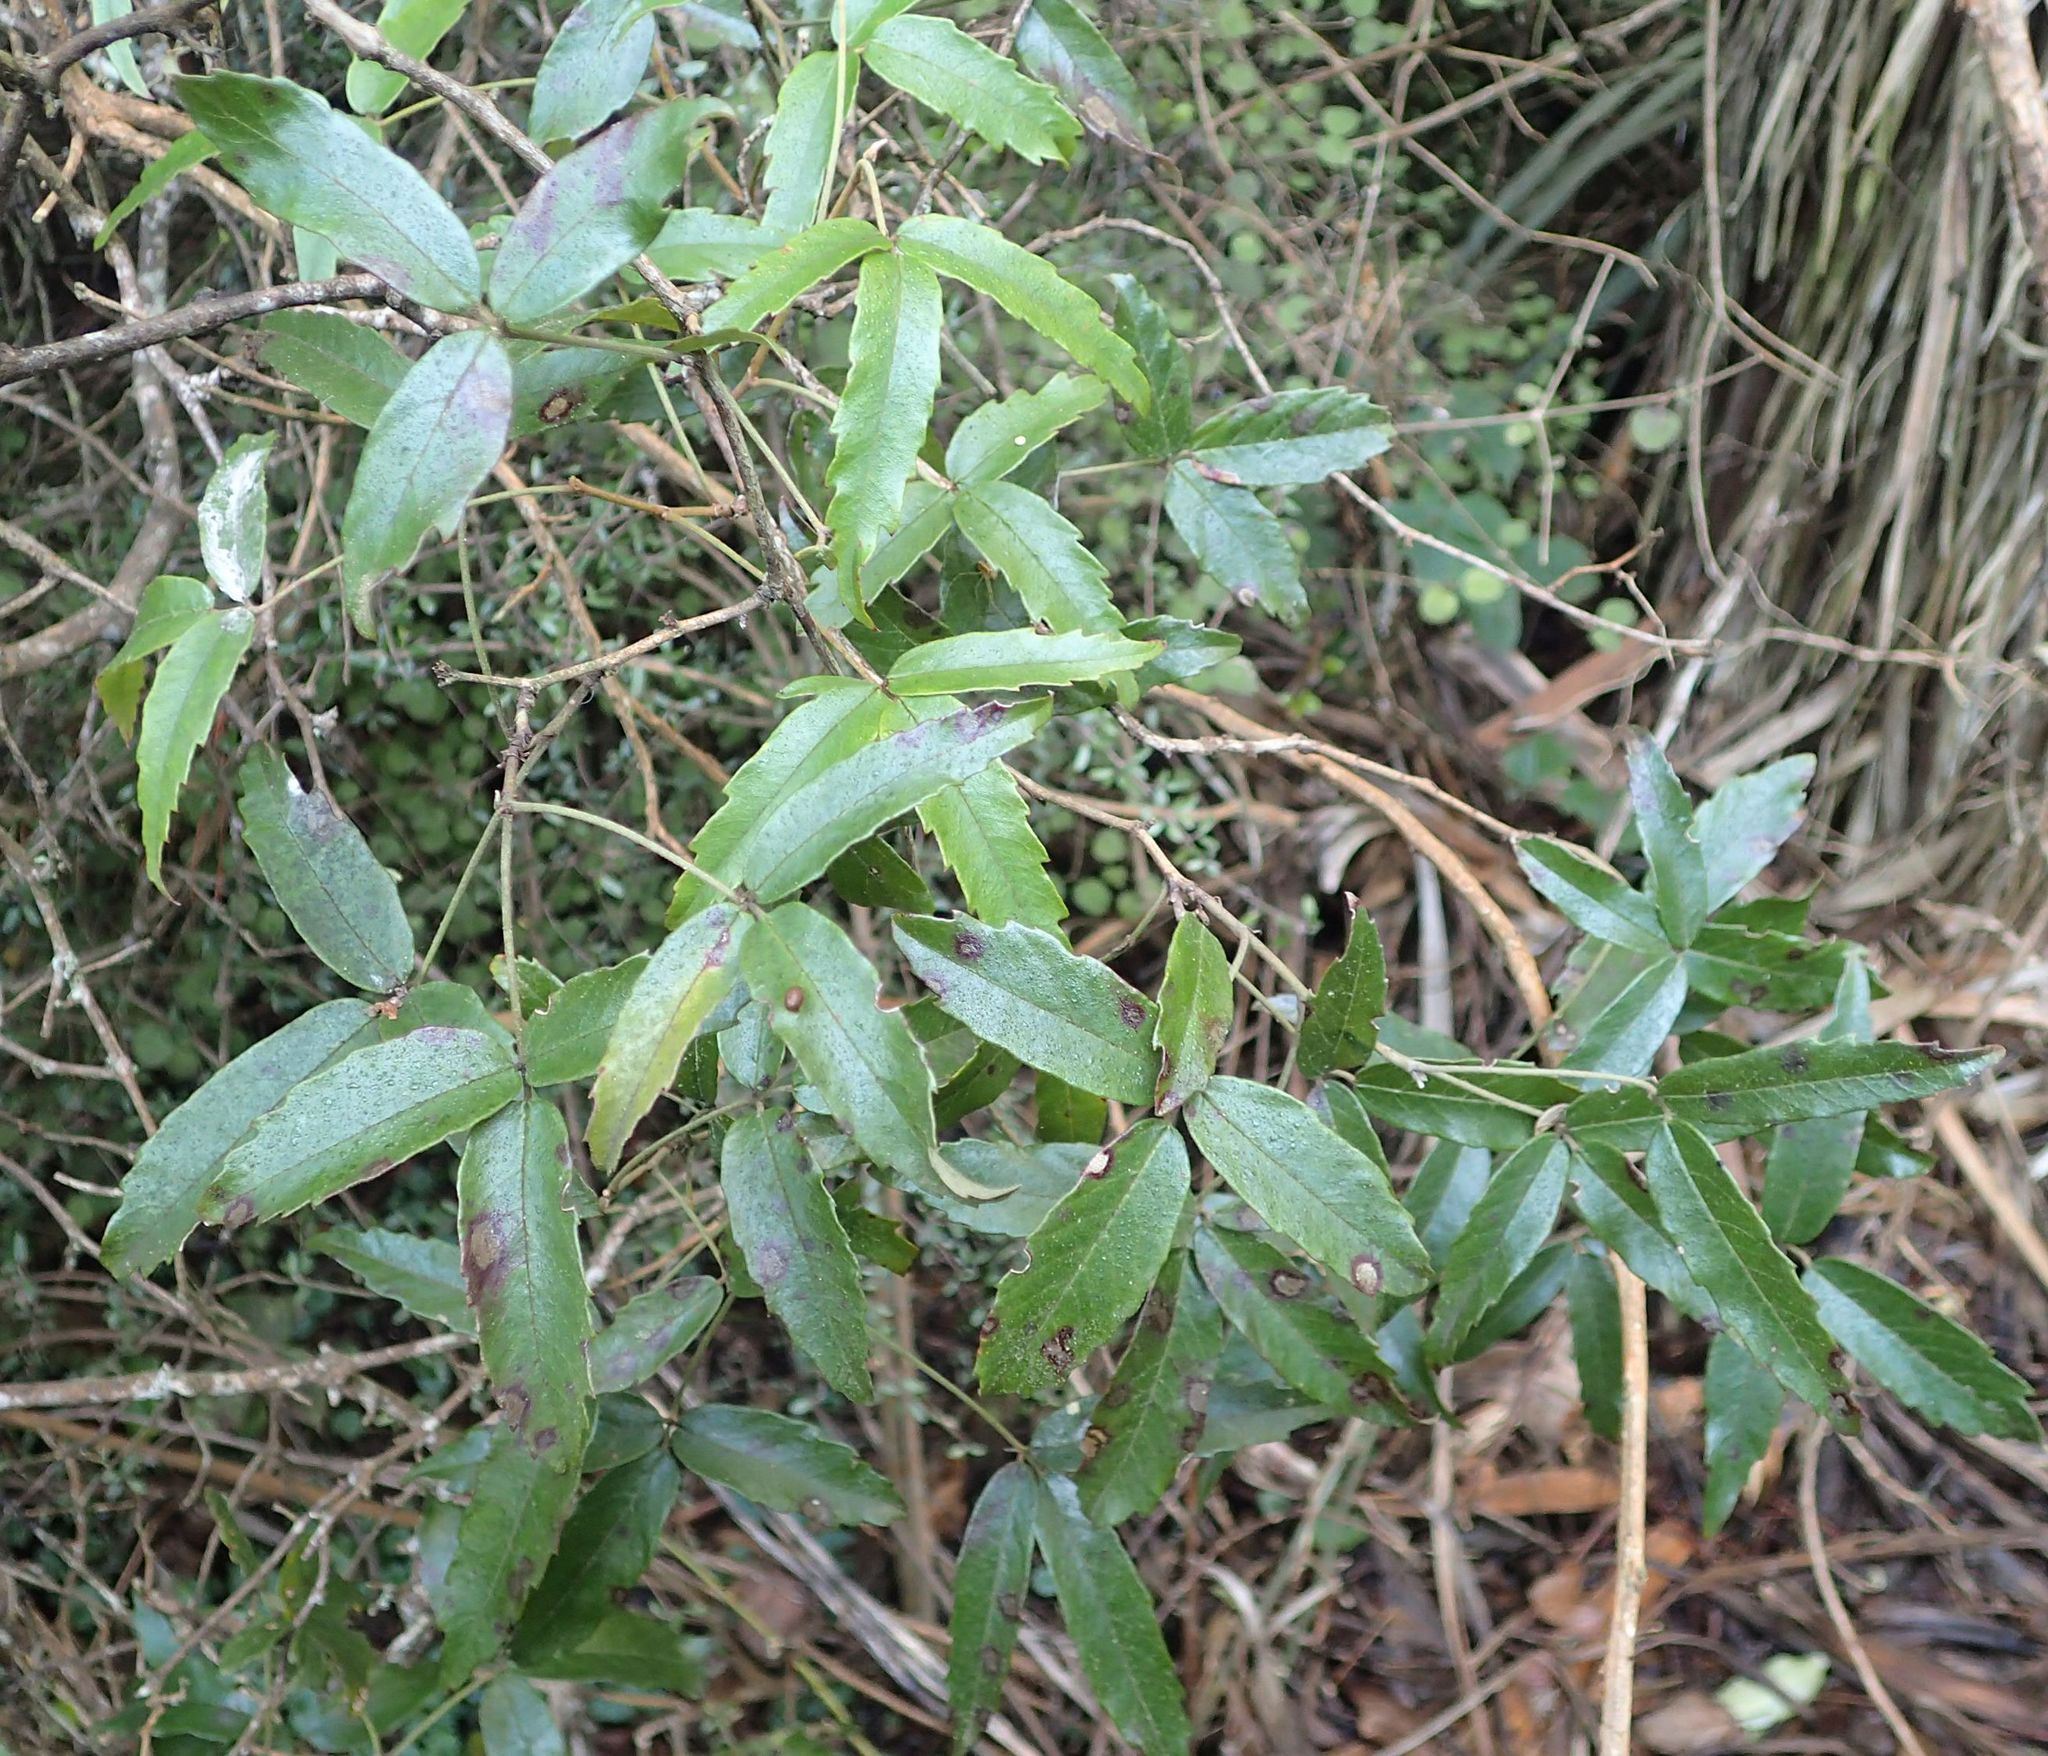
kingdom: Plantae
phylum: Tracheophyta
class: Magnoliopsida
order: Rosales
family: Rosaceae
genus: Rubus
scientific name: Rubus schmidelioides
